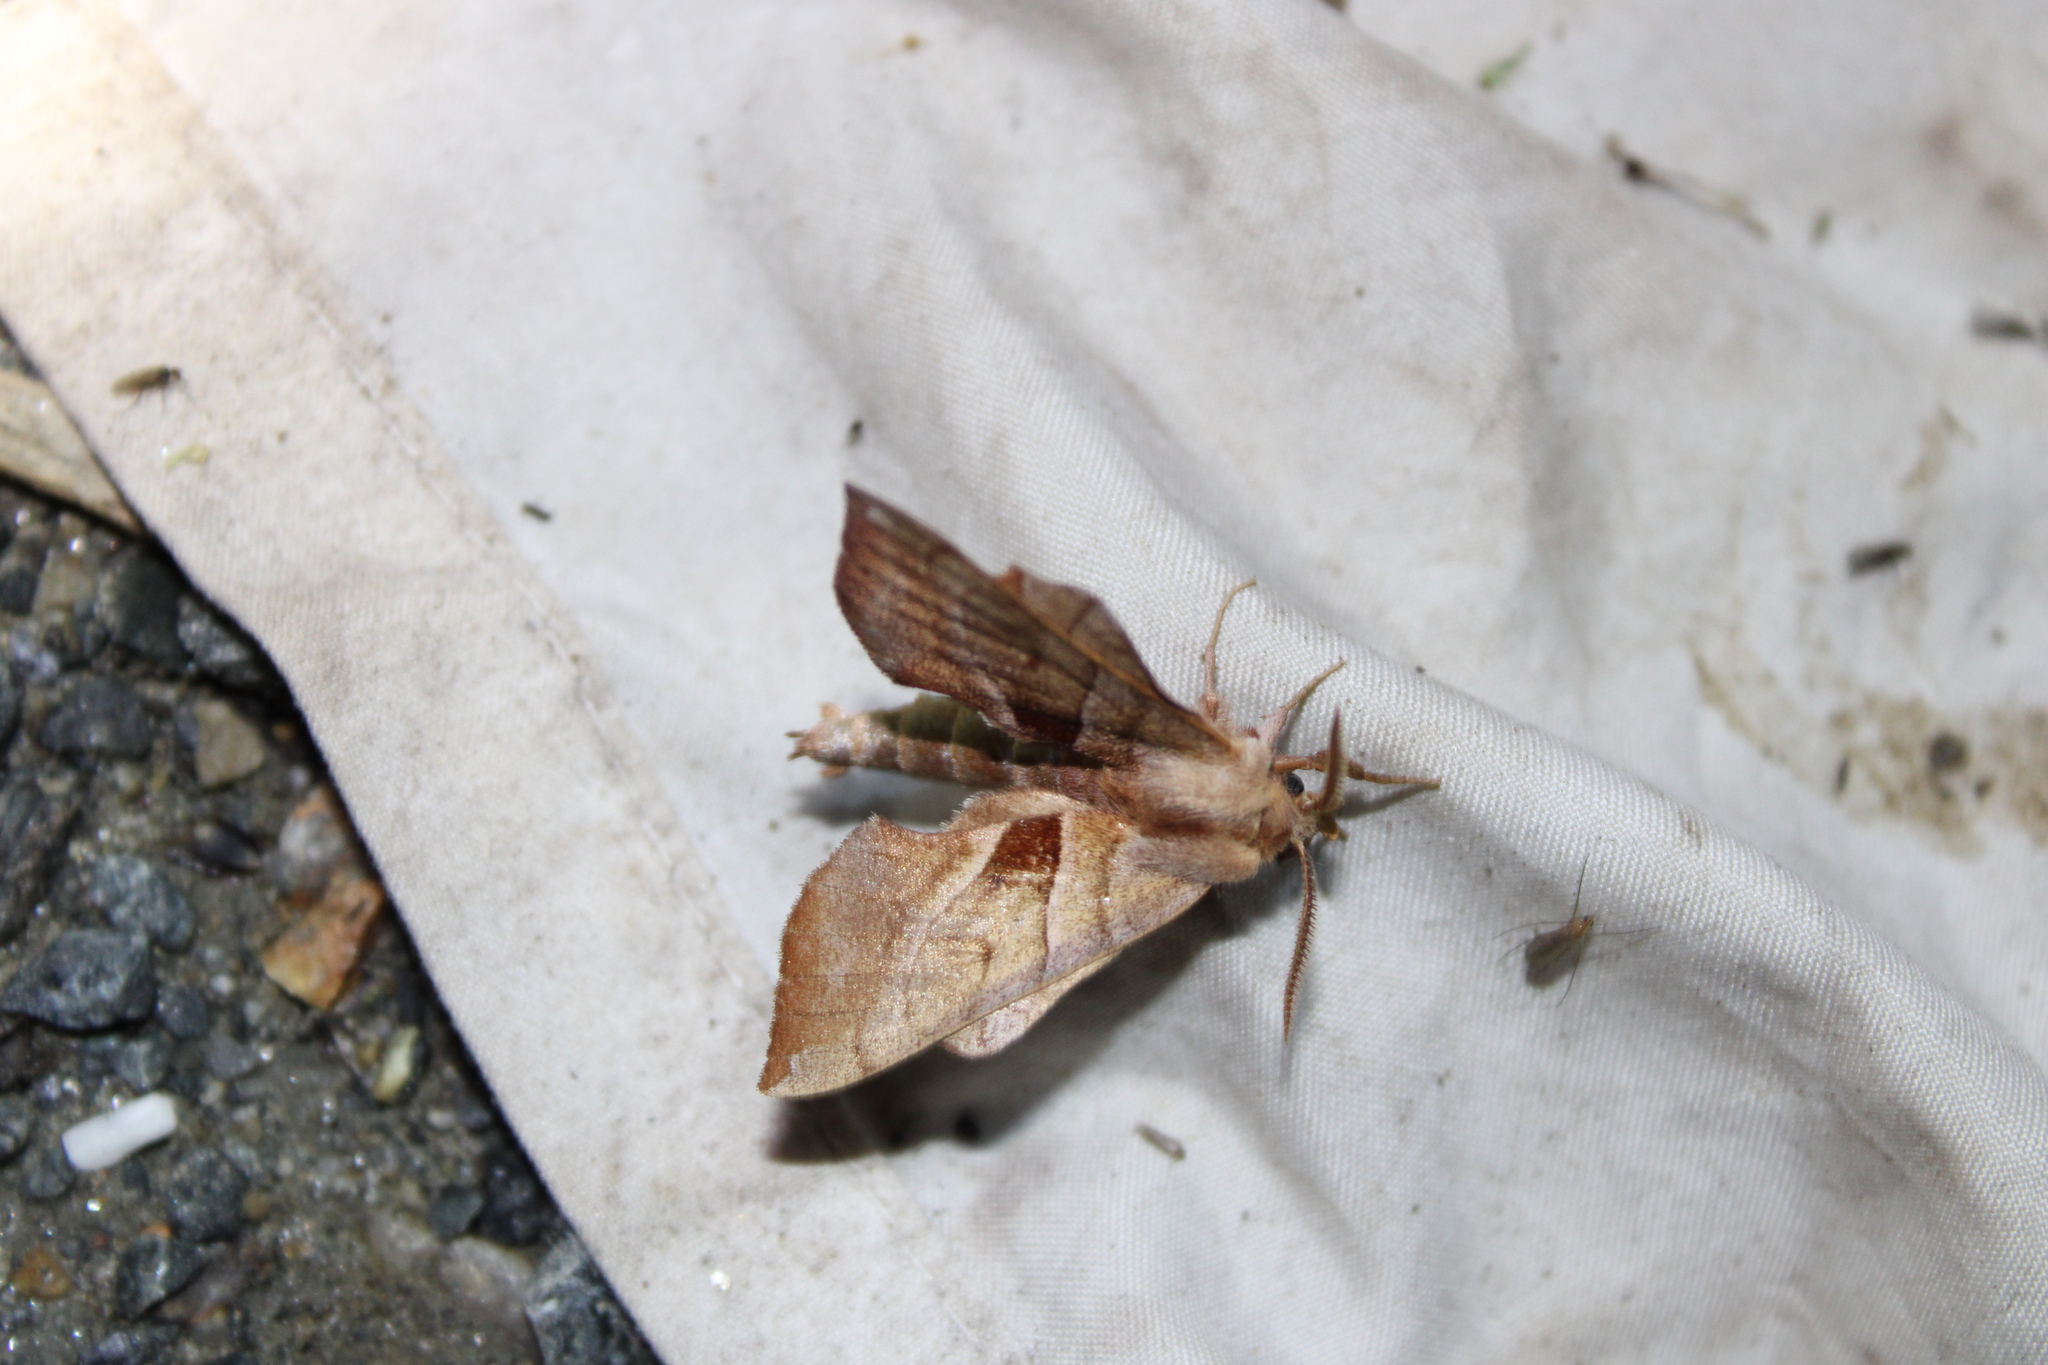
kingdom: Animalia
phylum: Arthropoda
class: Insecta
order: Lepidoptera
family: Sphingidae
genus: Amorpha
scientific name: Amorpha juglandis
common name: Walnut sphinx
